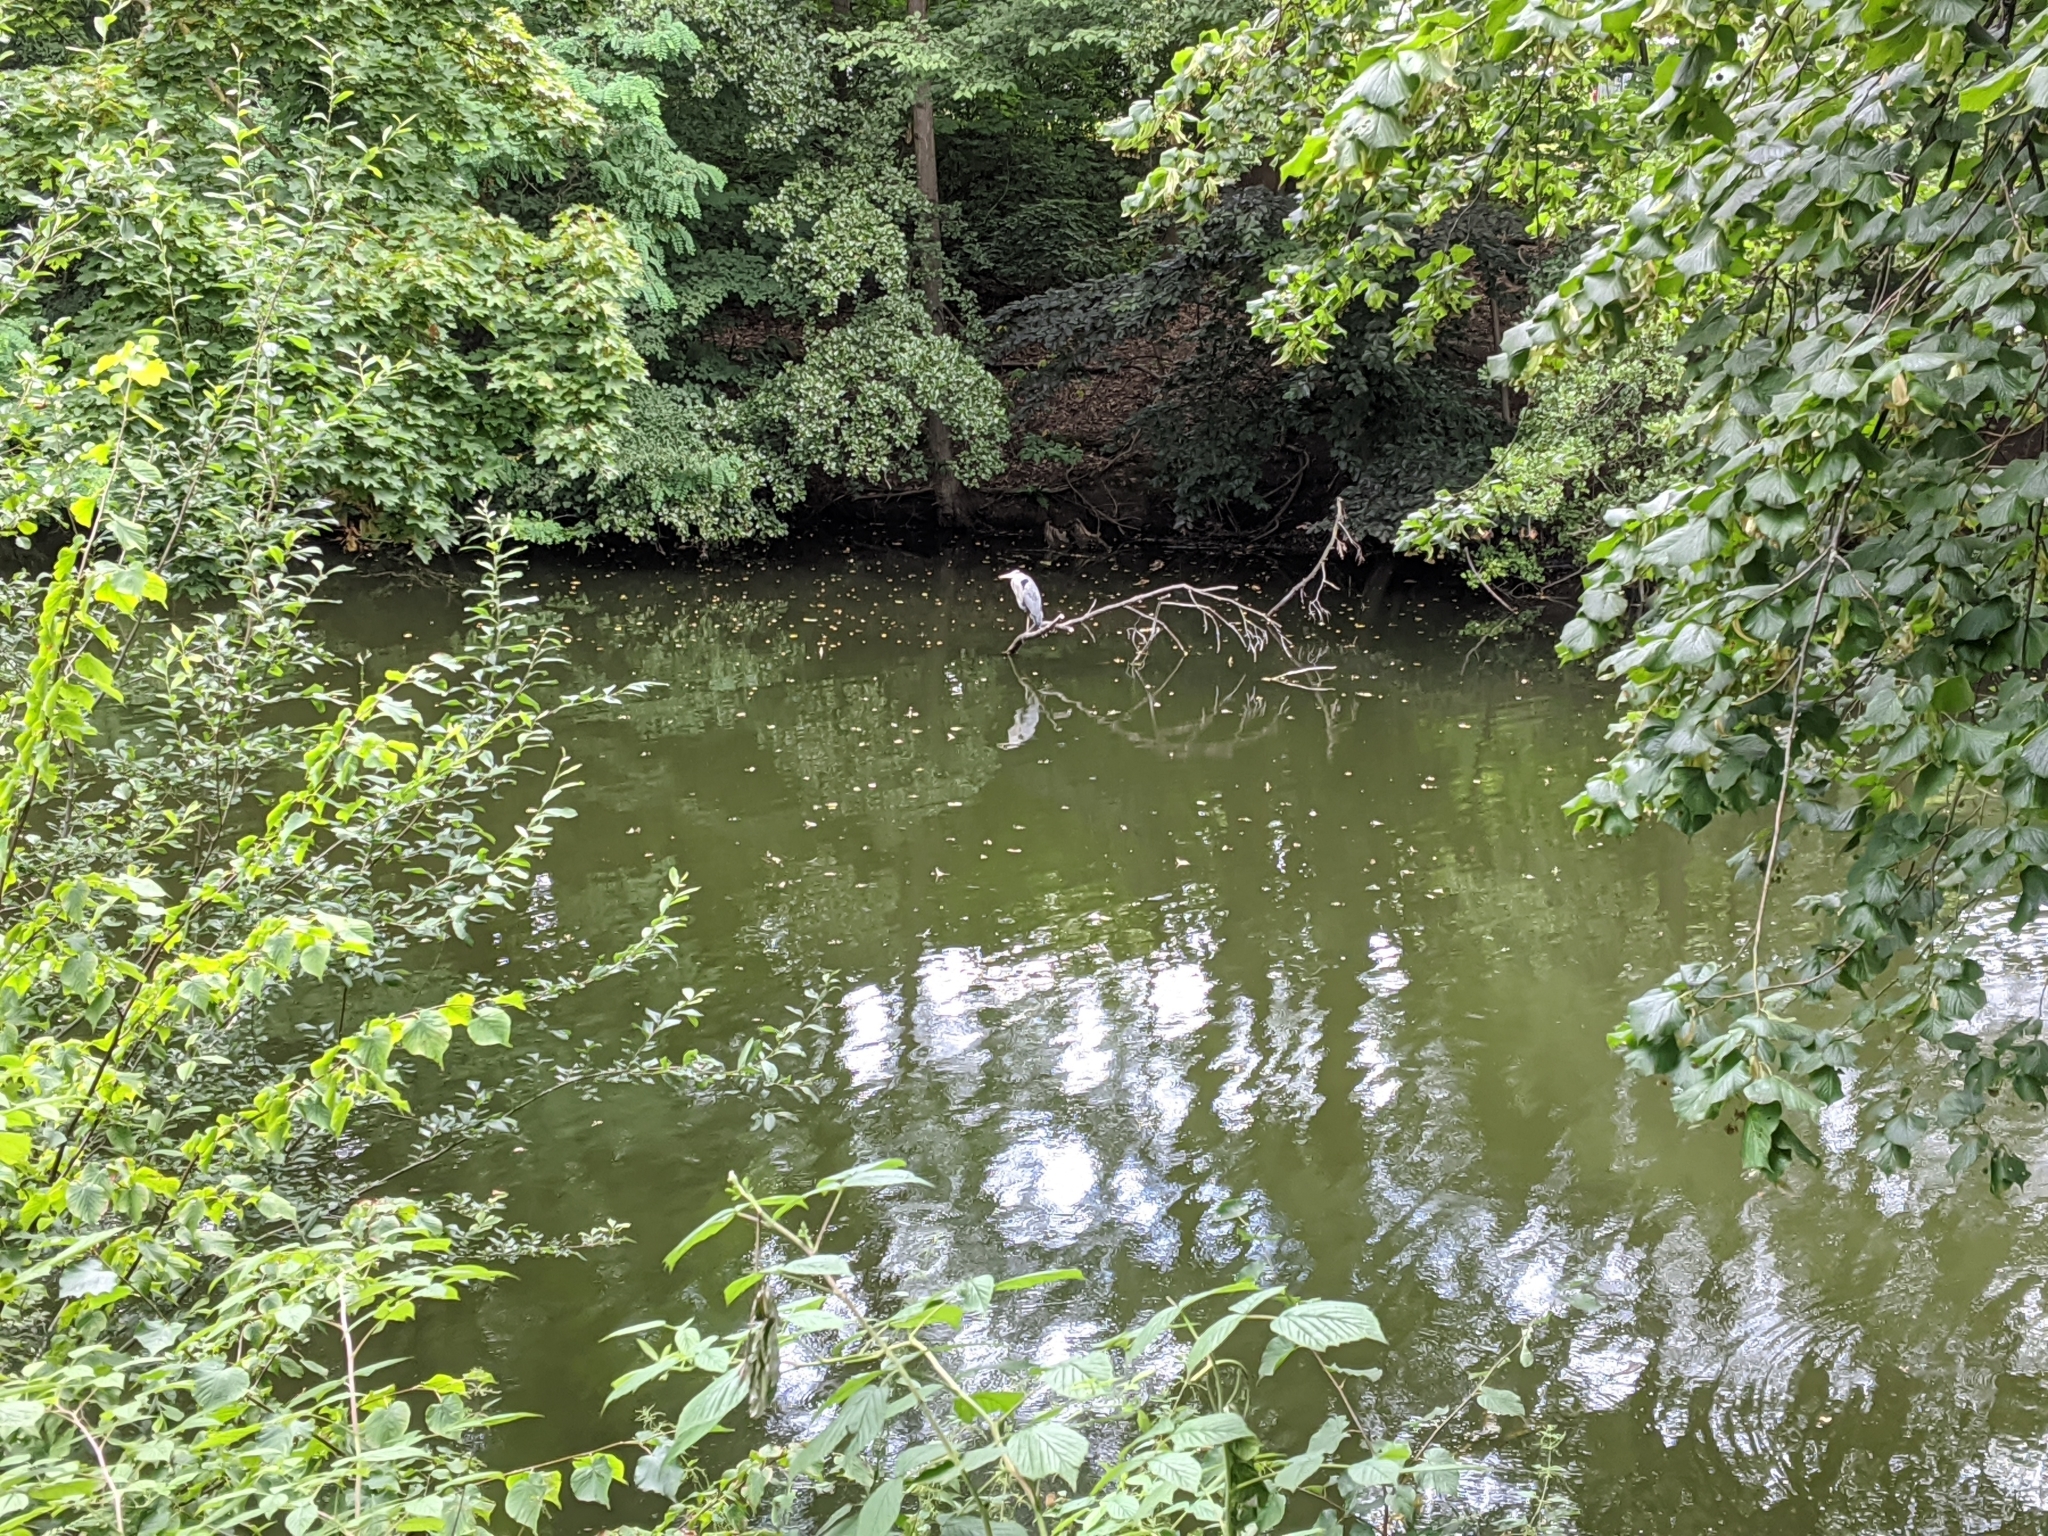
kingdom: Animalia
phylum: Chordata
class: Aves
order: Pelecaniformes
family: Ardeidae
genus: Ardea
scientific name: Ardea cinerea
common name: Grey heron
